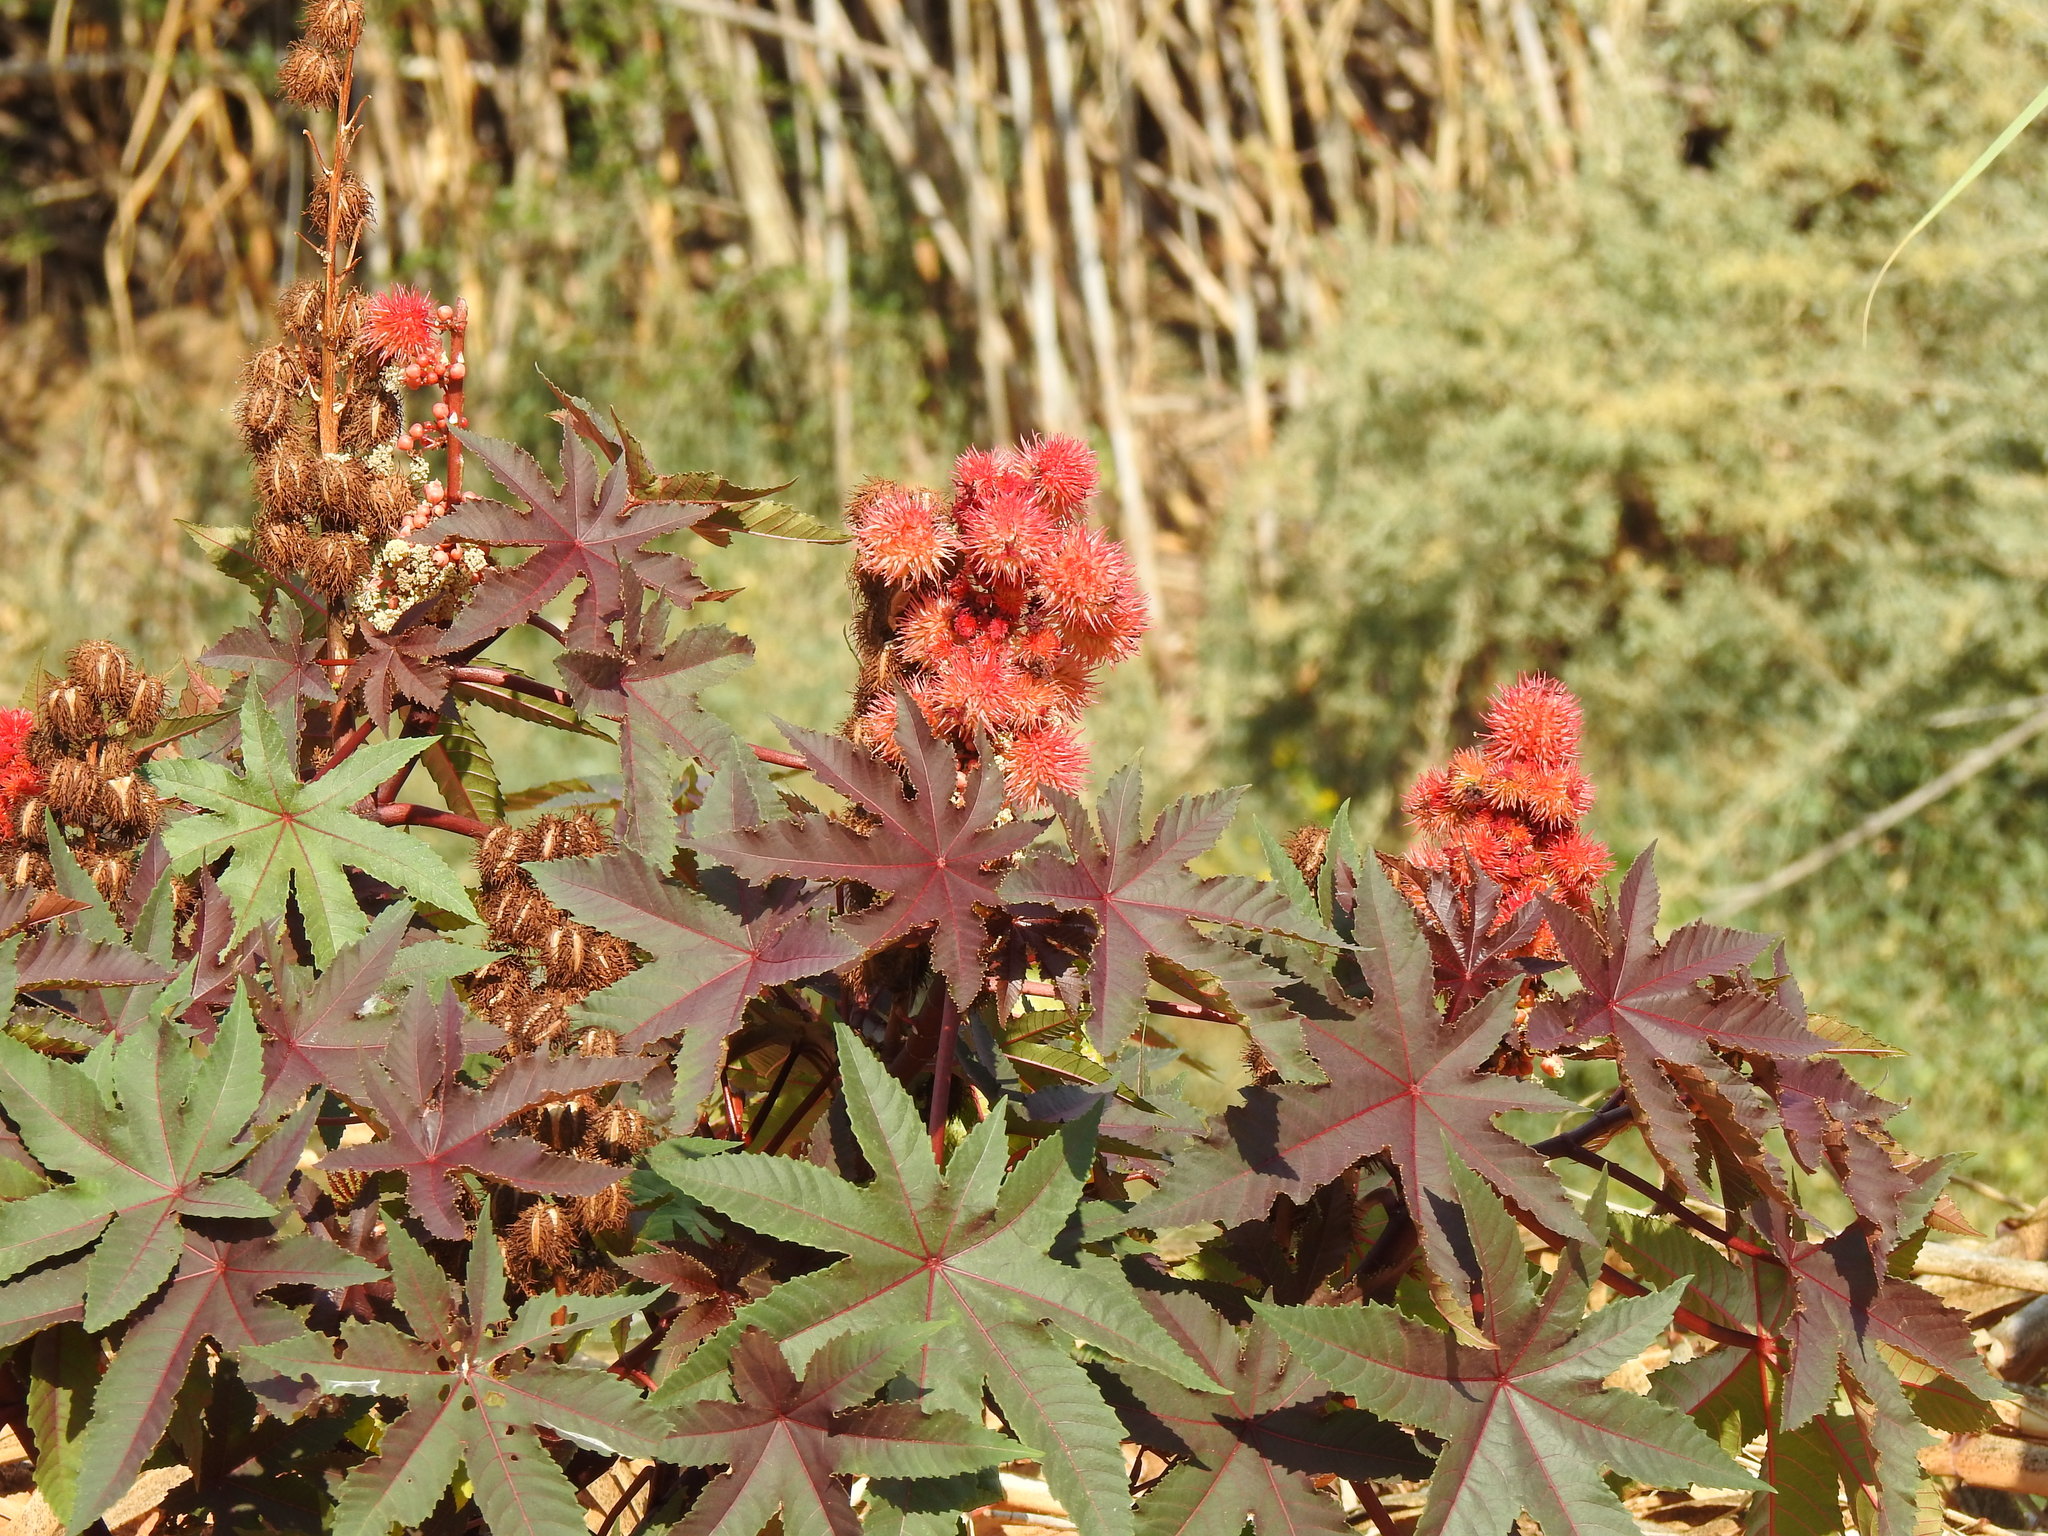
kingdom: Plantae
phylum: Tracheophyta
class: Magnoliopsida
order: Malpighiales
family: Euphorbiaceae
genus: Ricinus
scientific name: Ricinus communis
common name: Castor-oil-plant
